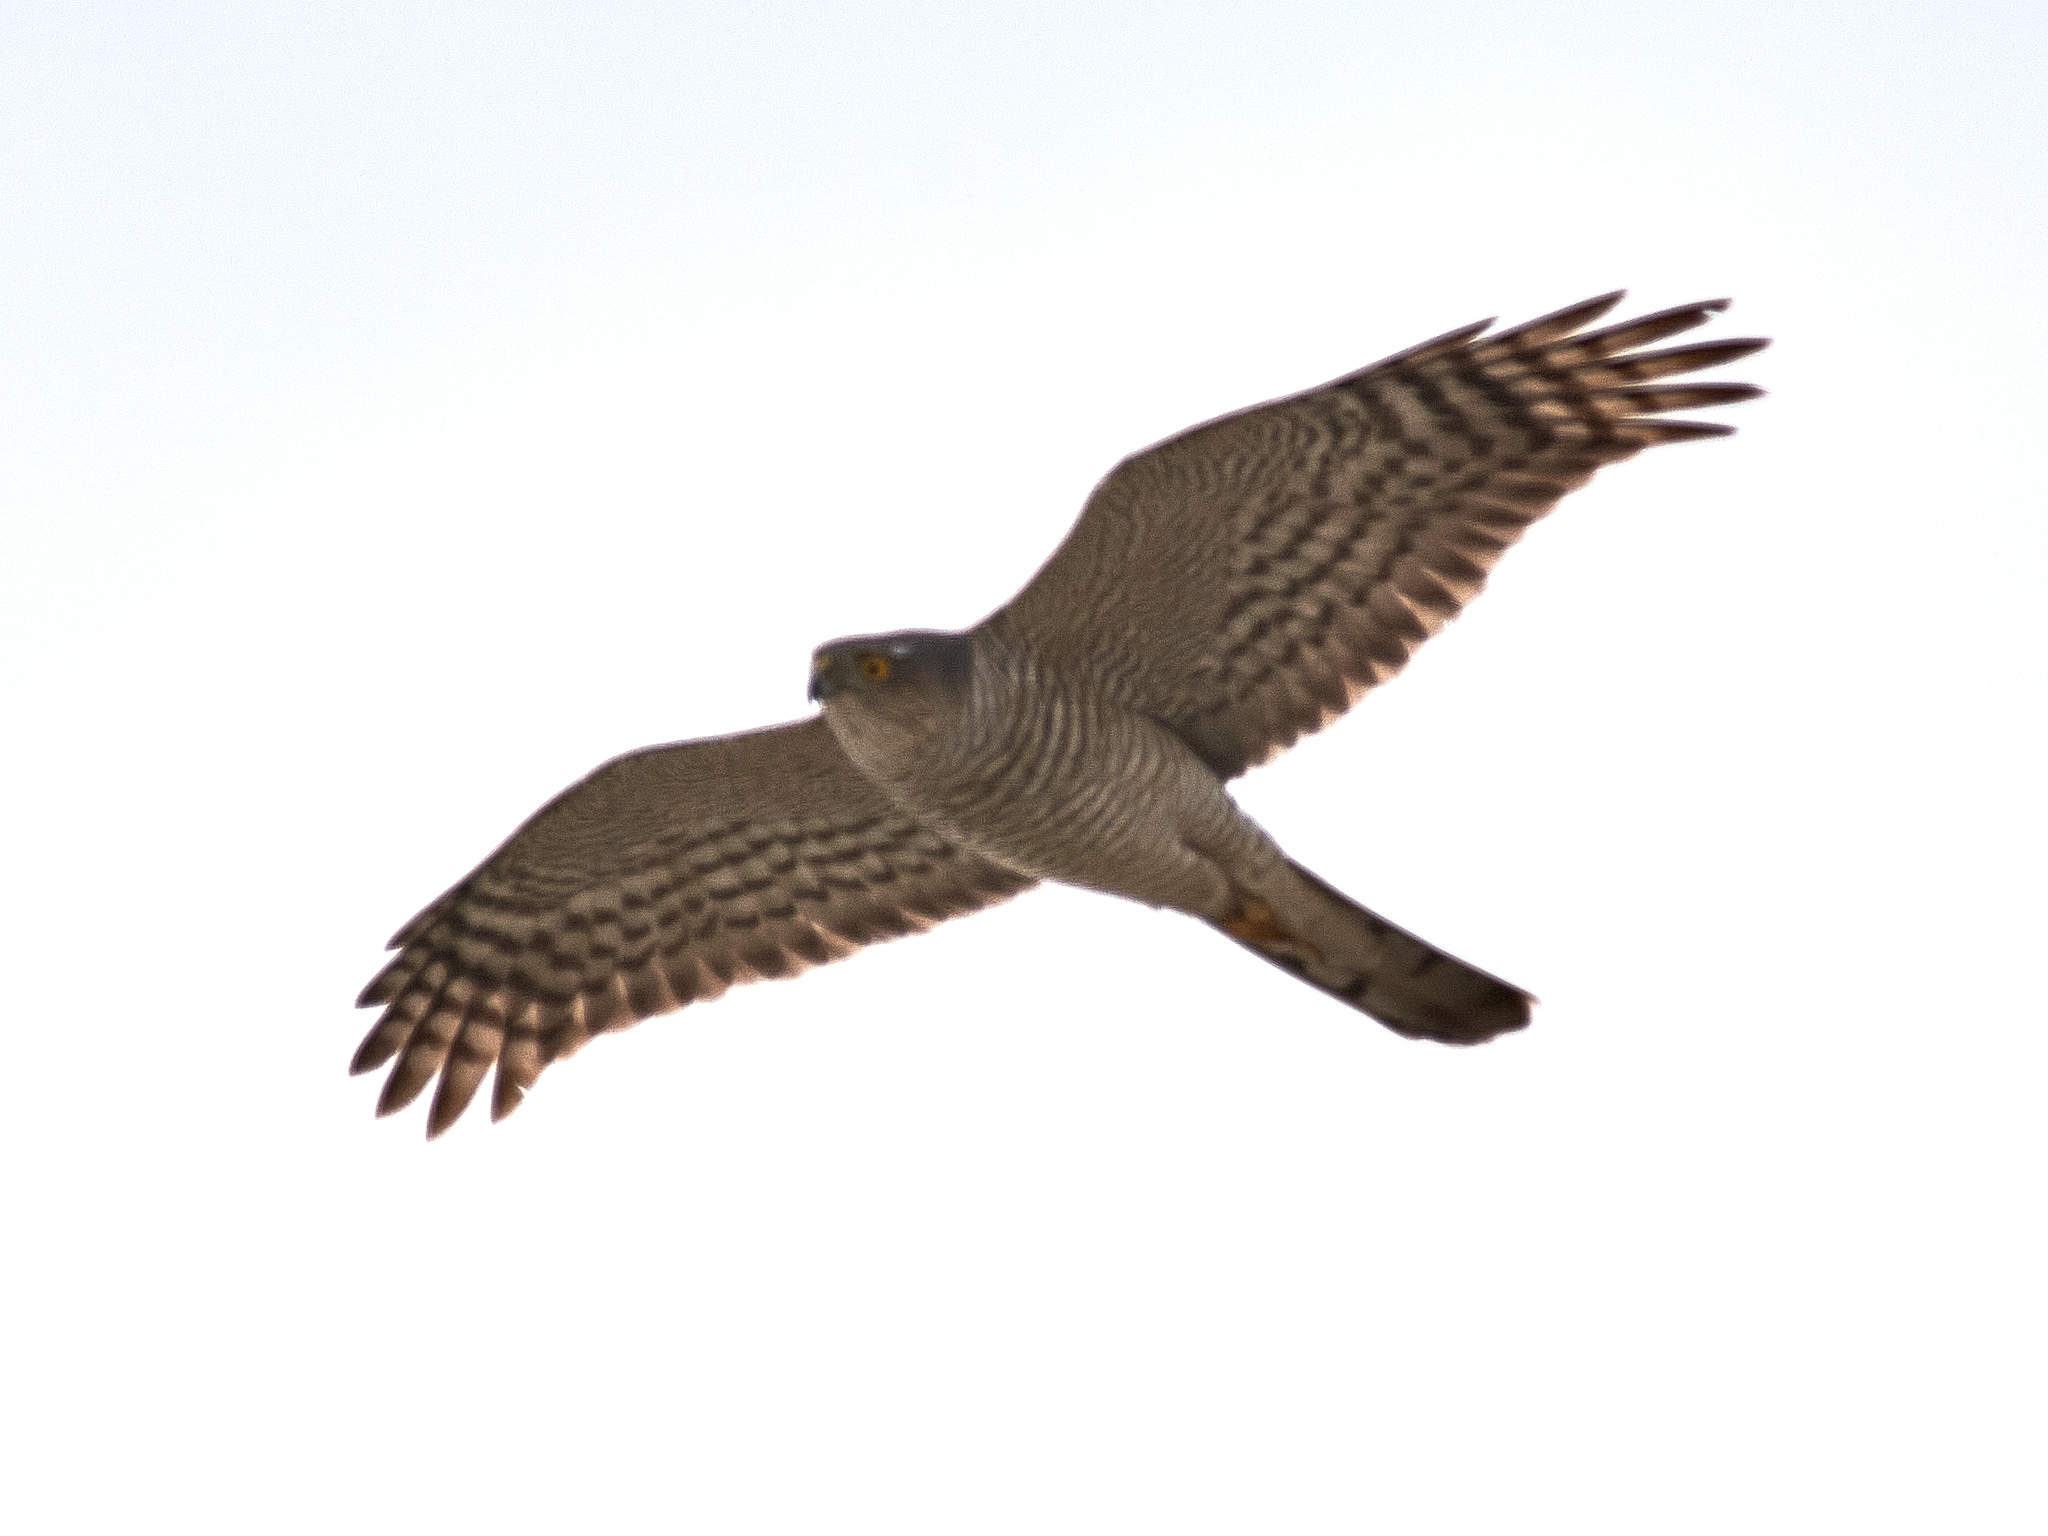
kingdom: Animalia
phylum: Chordata
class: Aves
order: Accipitriformes
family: Accipitridae
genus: Accipiter
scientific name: Accipiter nisus
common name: Eurasian sparrowhawk
